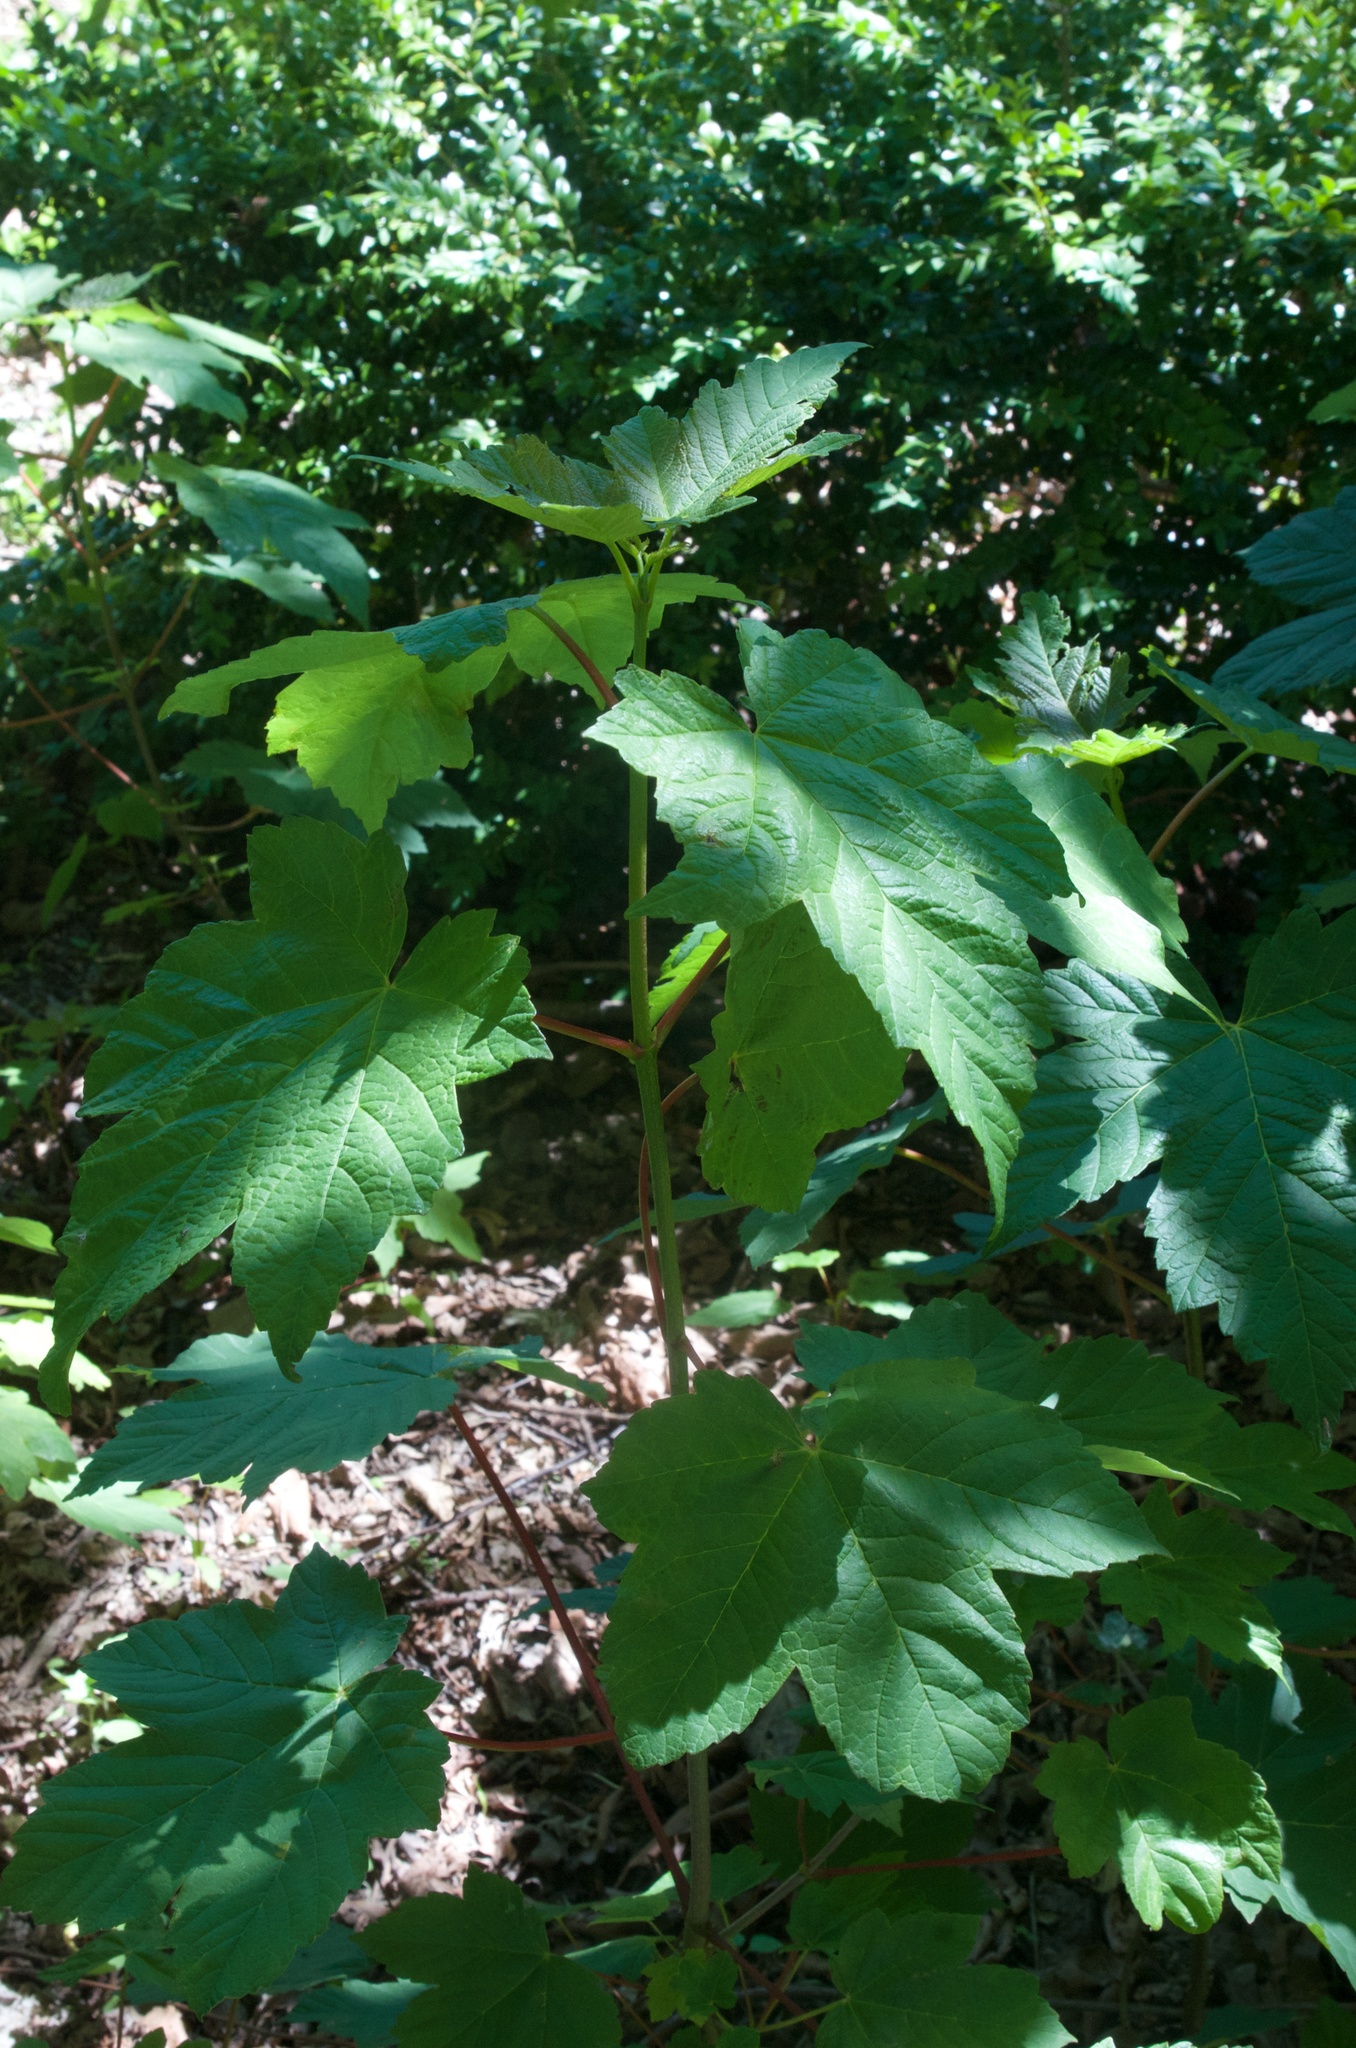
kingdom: Plantae
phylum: Tracheophyta
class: Magnoliopsida
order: Sapindales
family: Sapindaceae
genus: Acer
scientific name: Acer pseudoplatanus
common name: Sycamore
